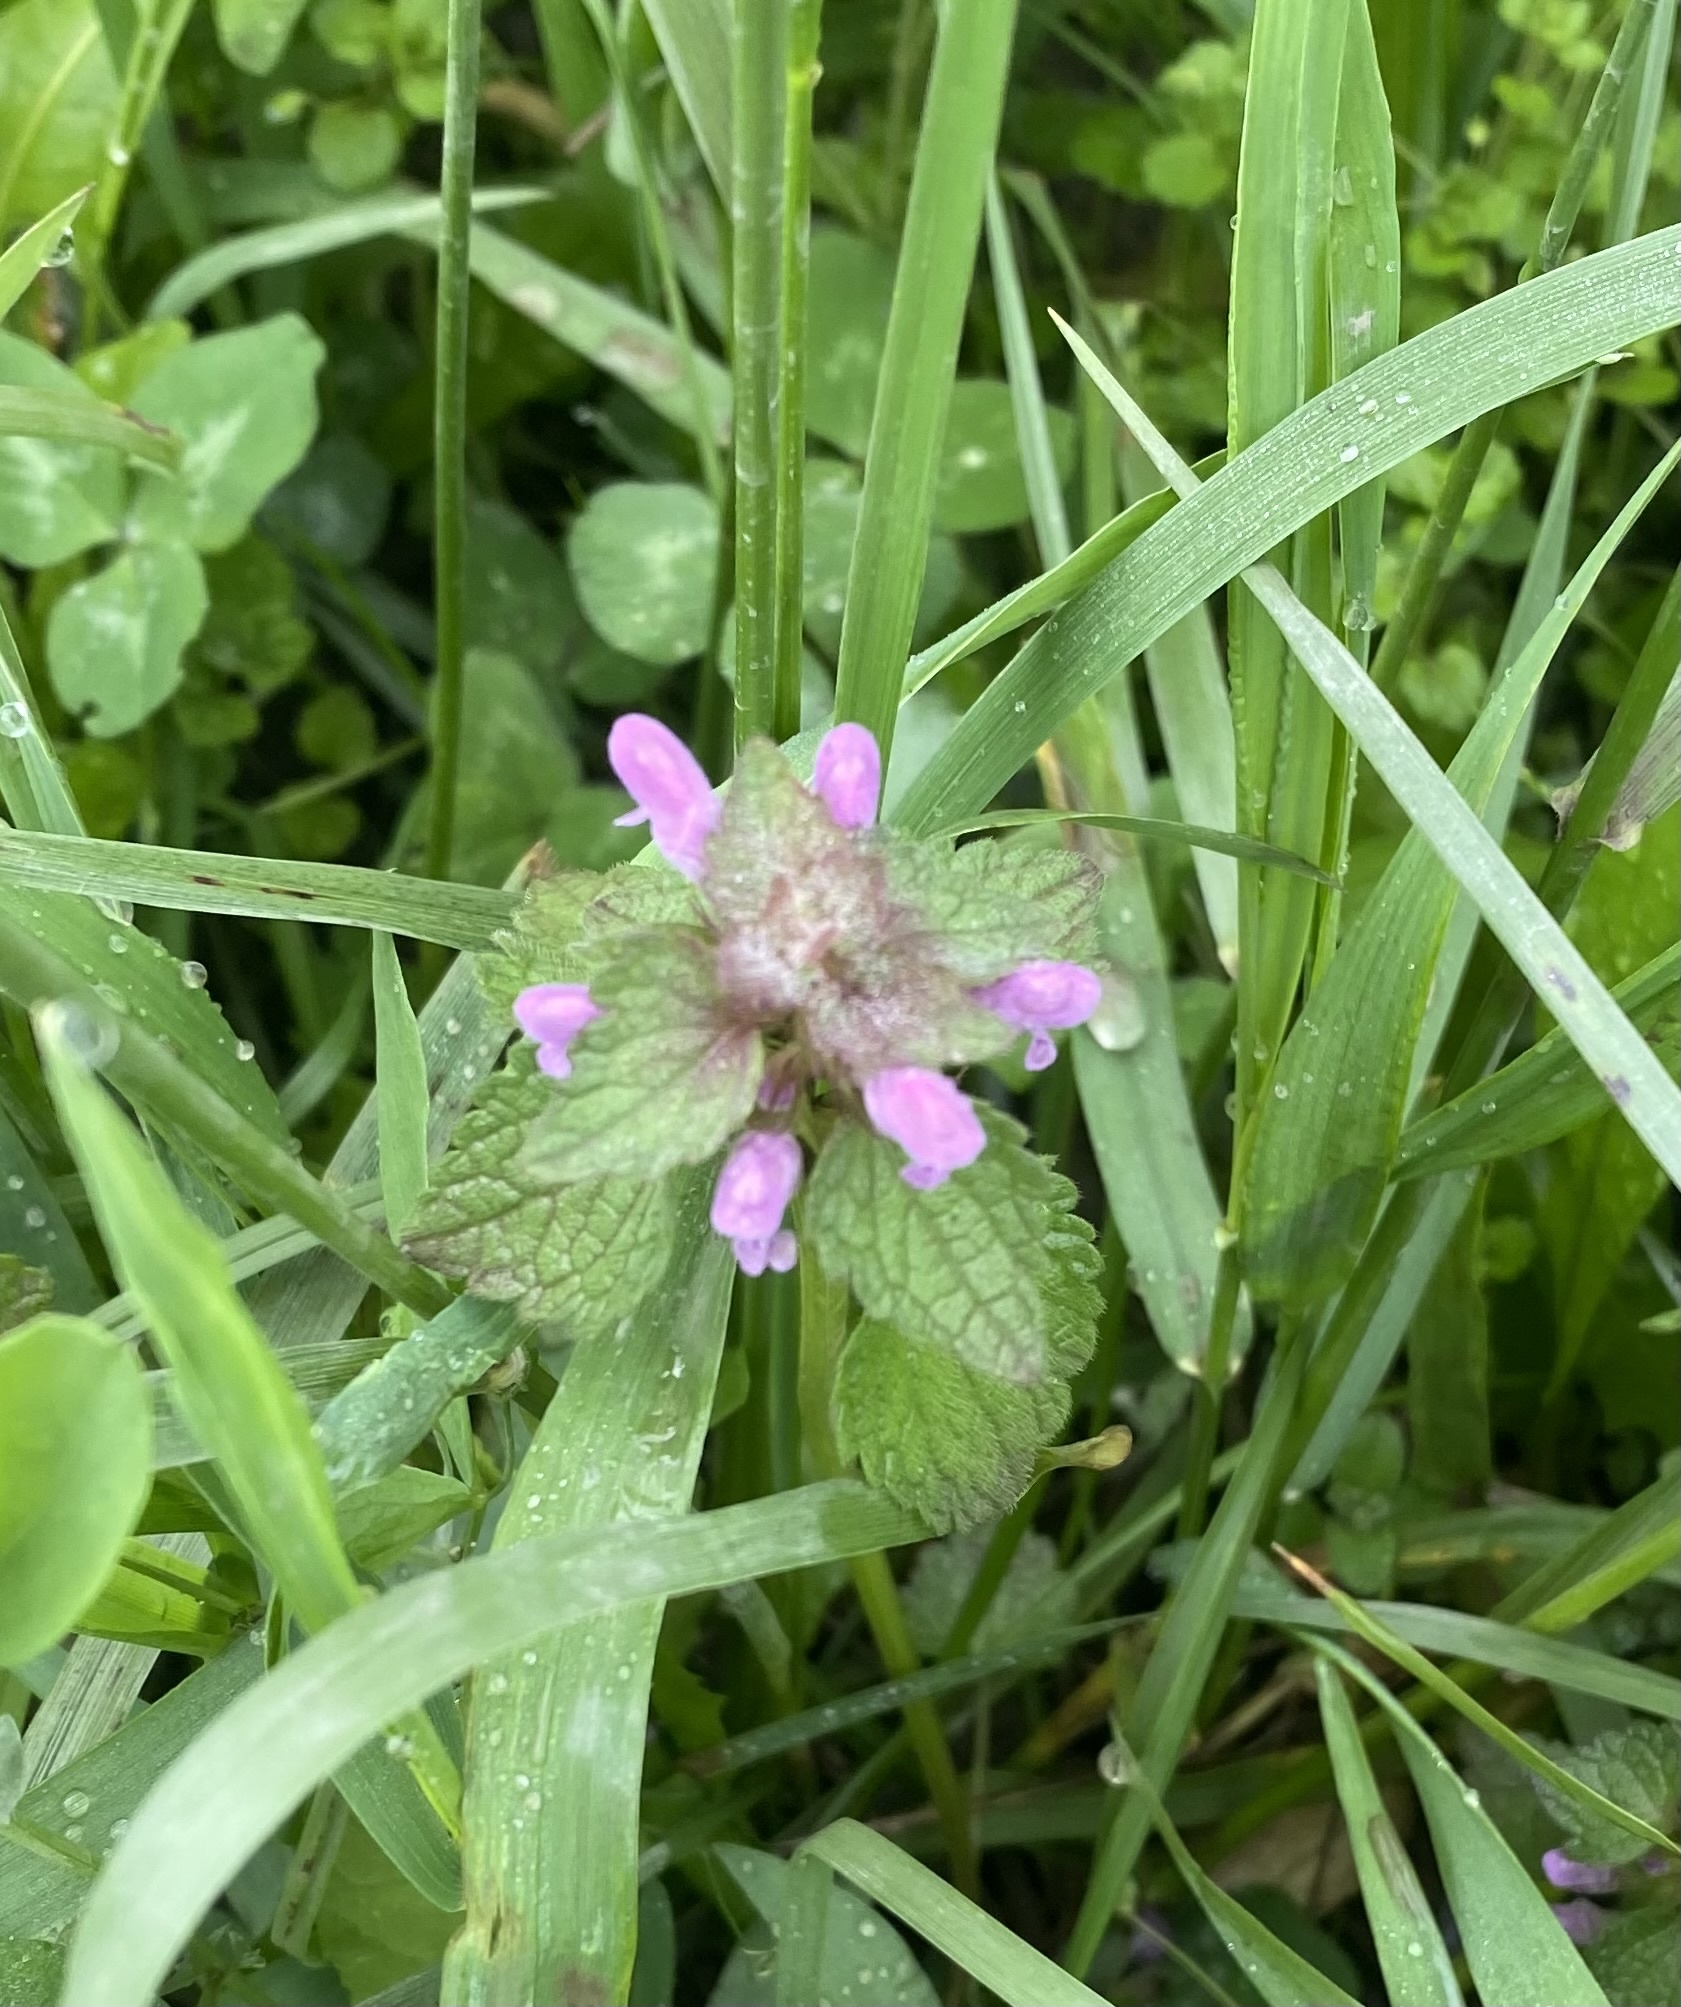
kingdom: Plantae
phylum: Tracheophyta
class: Magnoliopsida
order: Lamiales
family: Lamiaceae
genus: Lamium
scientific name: Lamium purpureum
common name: Red dead-nettle
